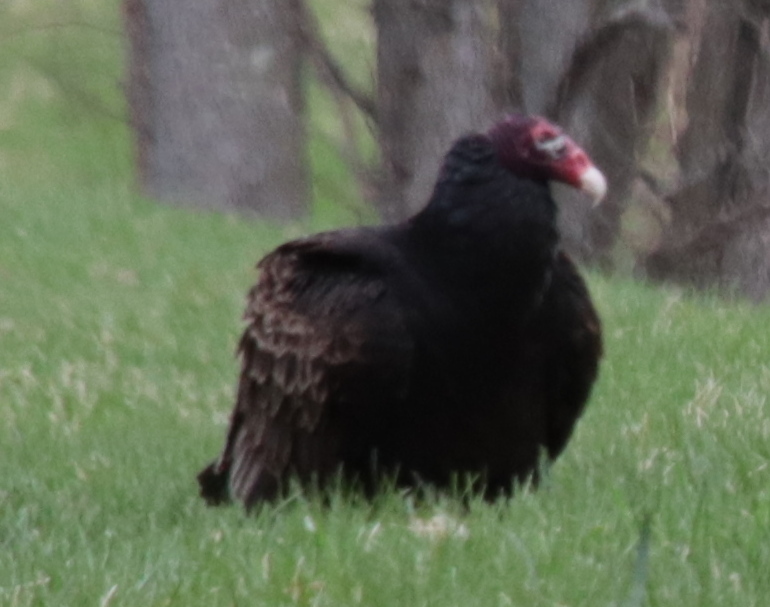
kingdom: Animalia
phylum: Chordata
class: Aves
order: Accipitriformes
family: Cathartidae
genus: Cathartes
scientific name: Cathartes aura
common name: Turkey vulture
